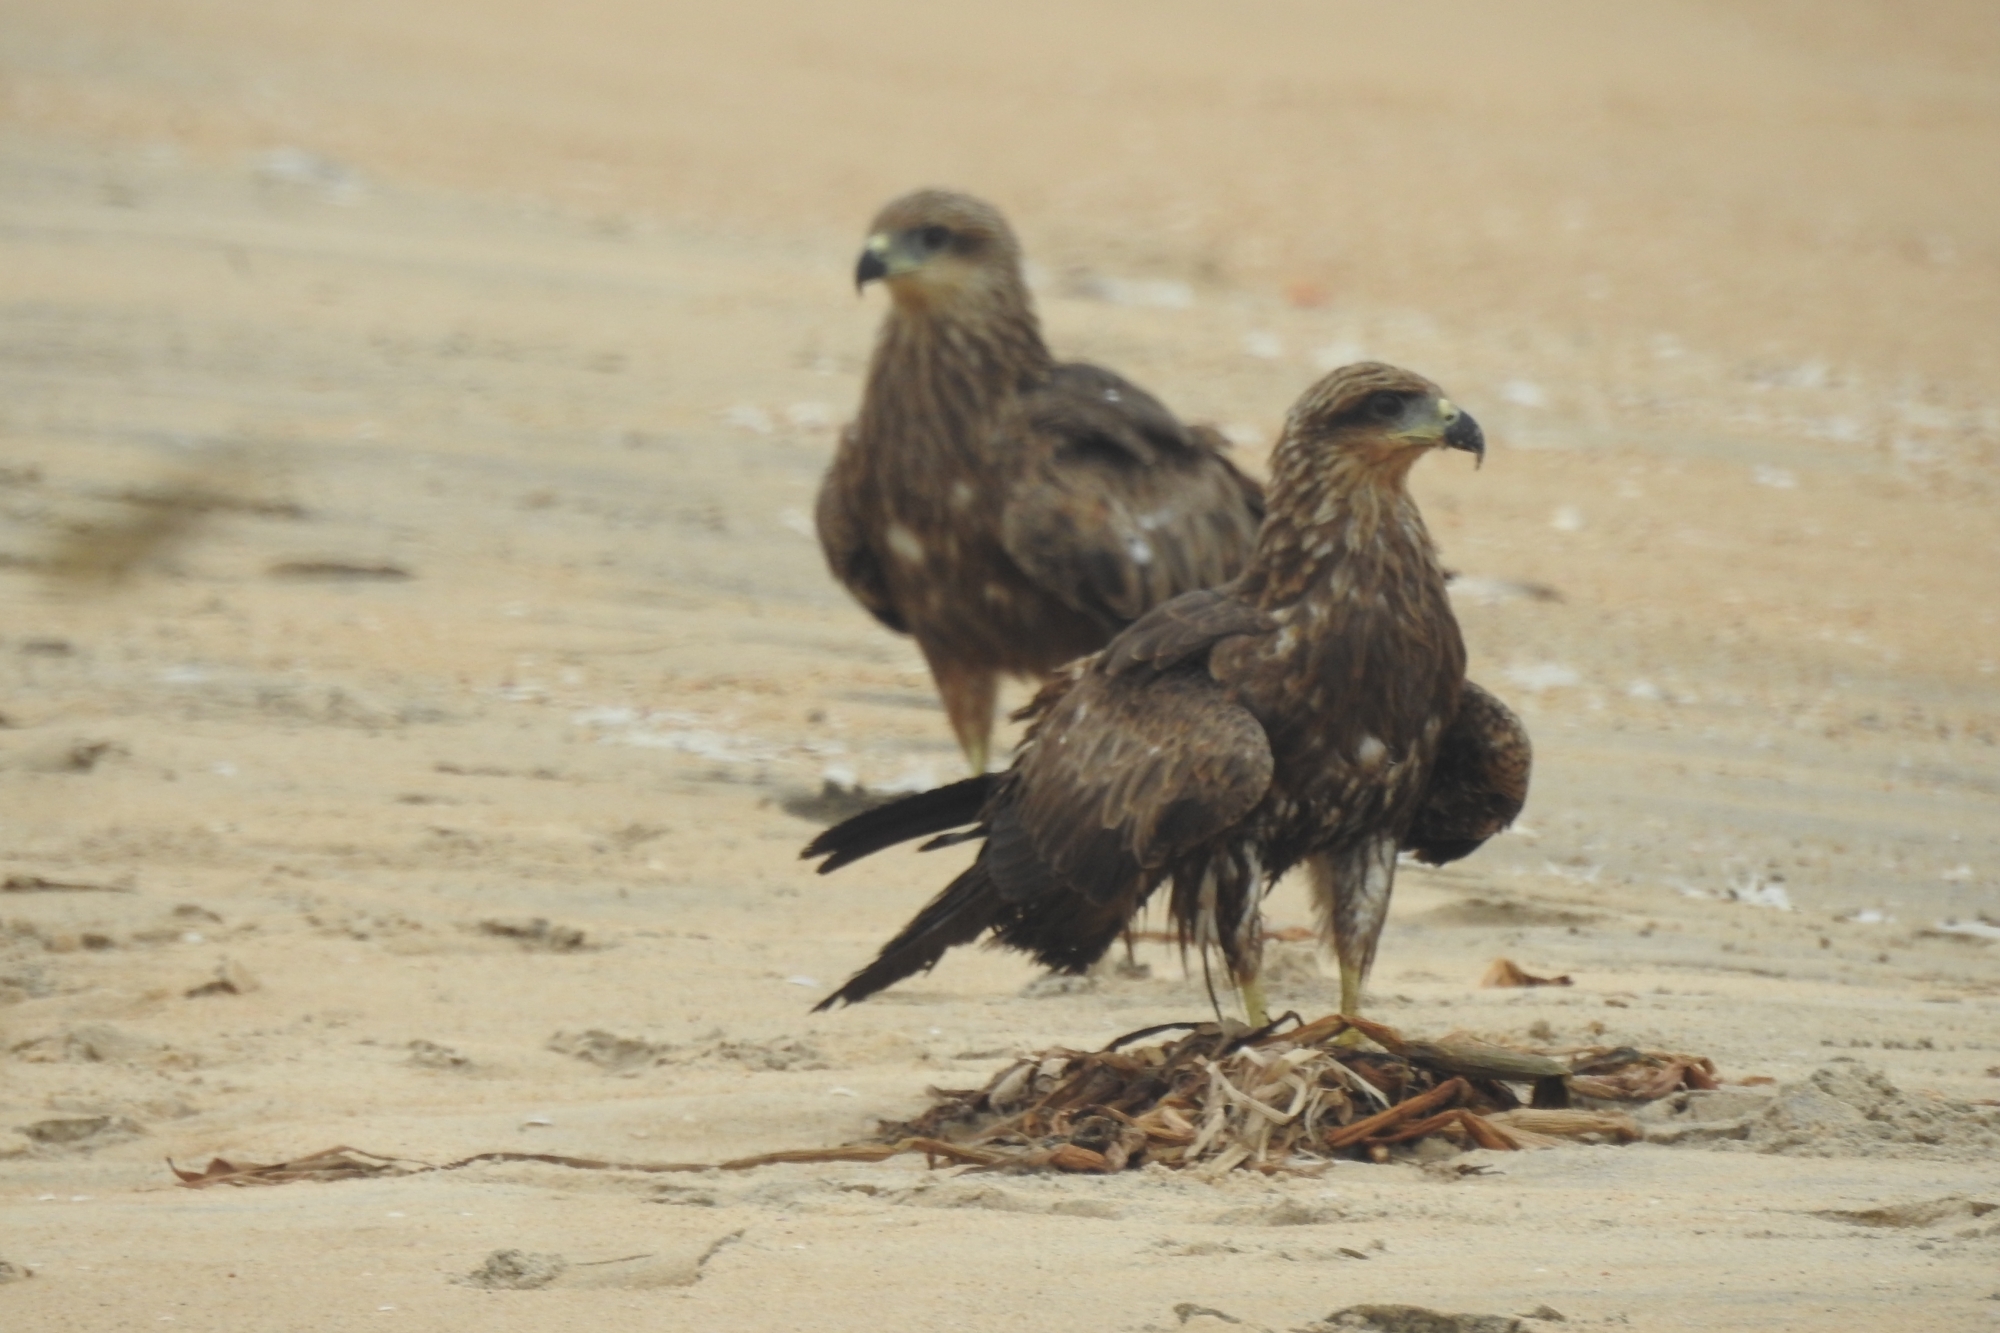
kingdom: Animalia
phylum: Chordata
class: Aves
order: Accipitriformes
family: Accipitridae
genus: Milvus
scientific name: Milvus migrans
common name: Black kite
